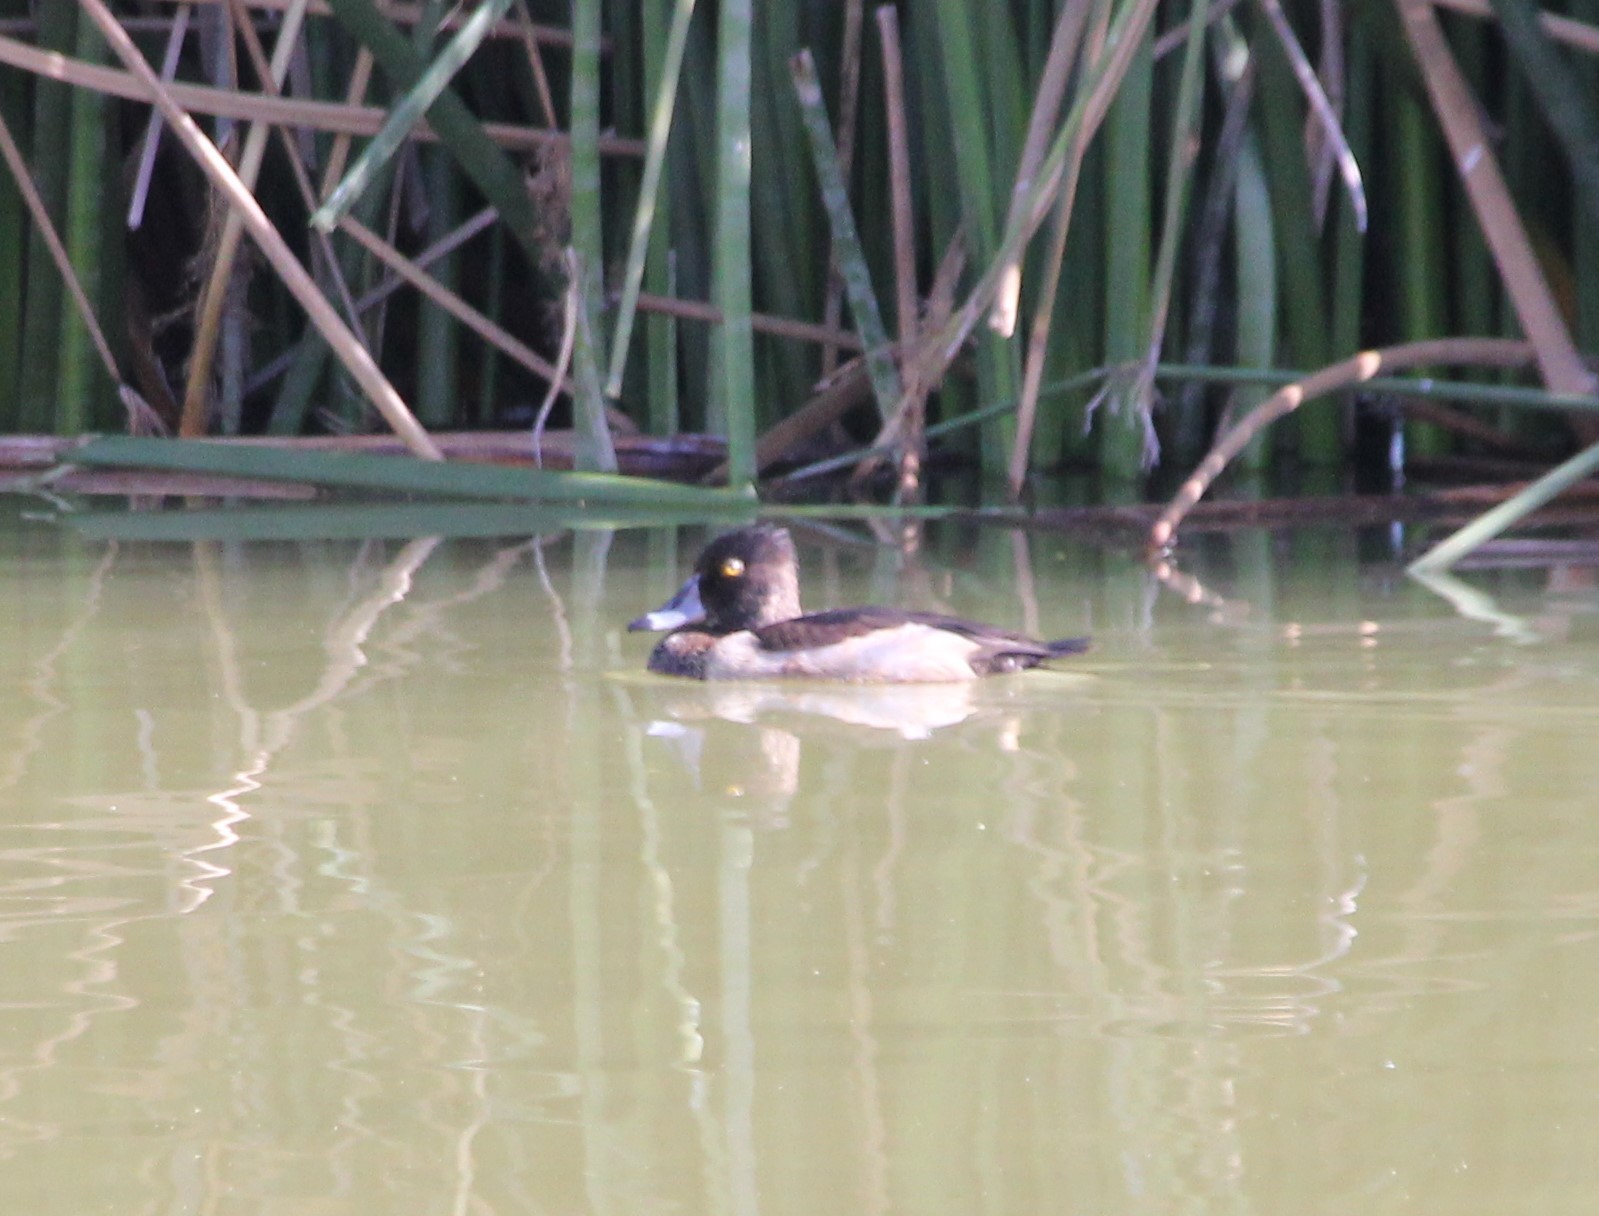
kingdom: Animalia
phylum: Chordata
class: Aves
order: Anseriformes
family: Anatidae
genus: Aythya
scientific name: Aythya collaris
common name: Ring-necked duck
